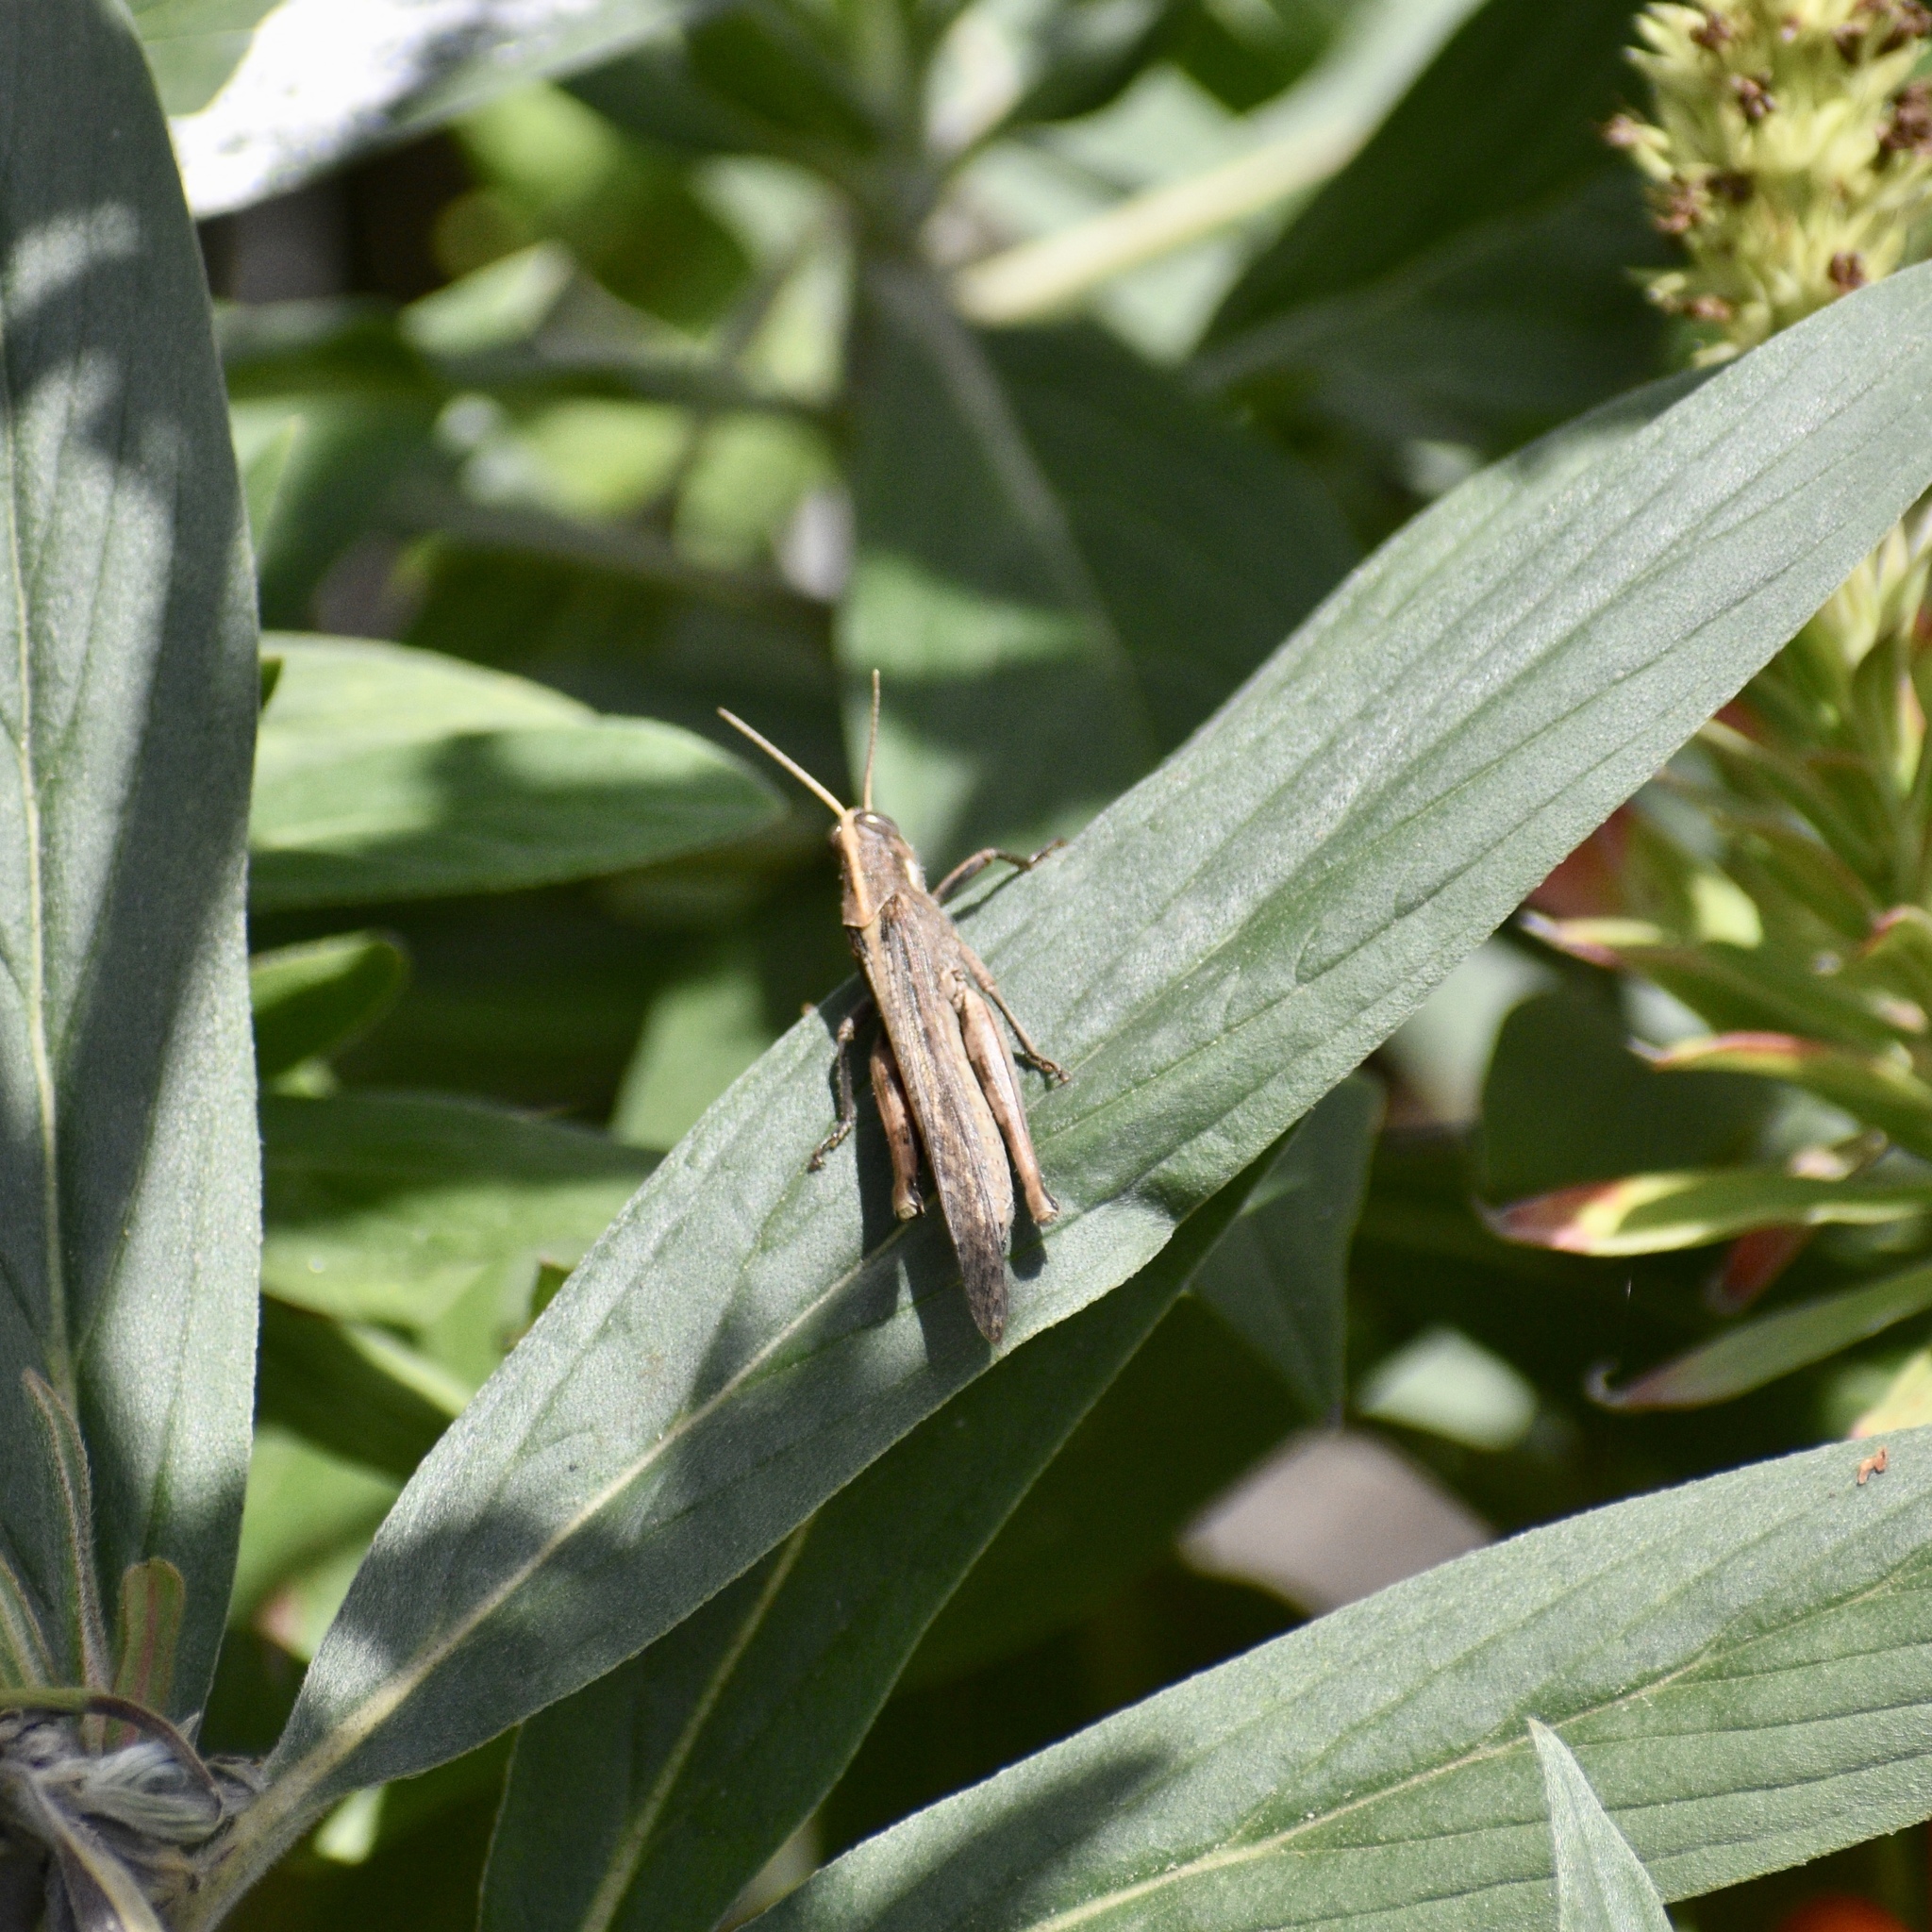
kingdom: Animalia
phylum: Arthropoda
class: Insecta
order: Orthoptera
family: Acrididae
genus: Schistocerca
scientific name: Schistocerca nitens
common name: Vagrant grasshopper
